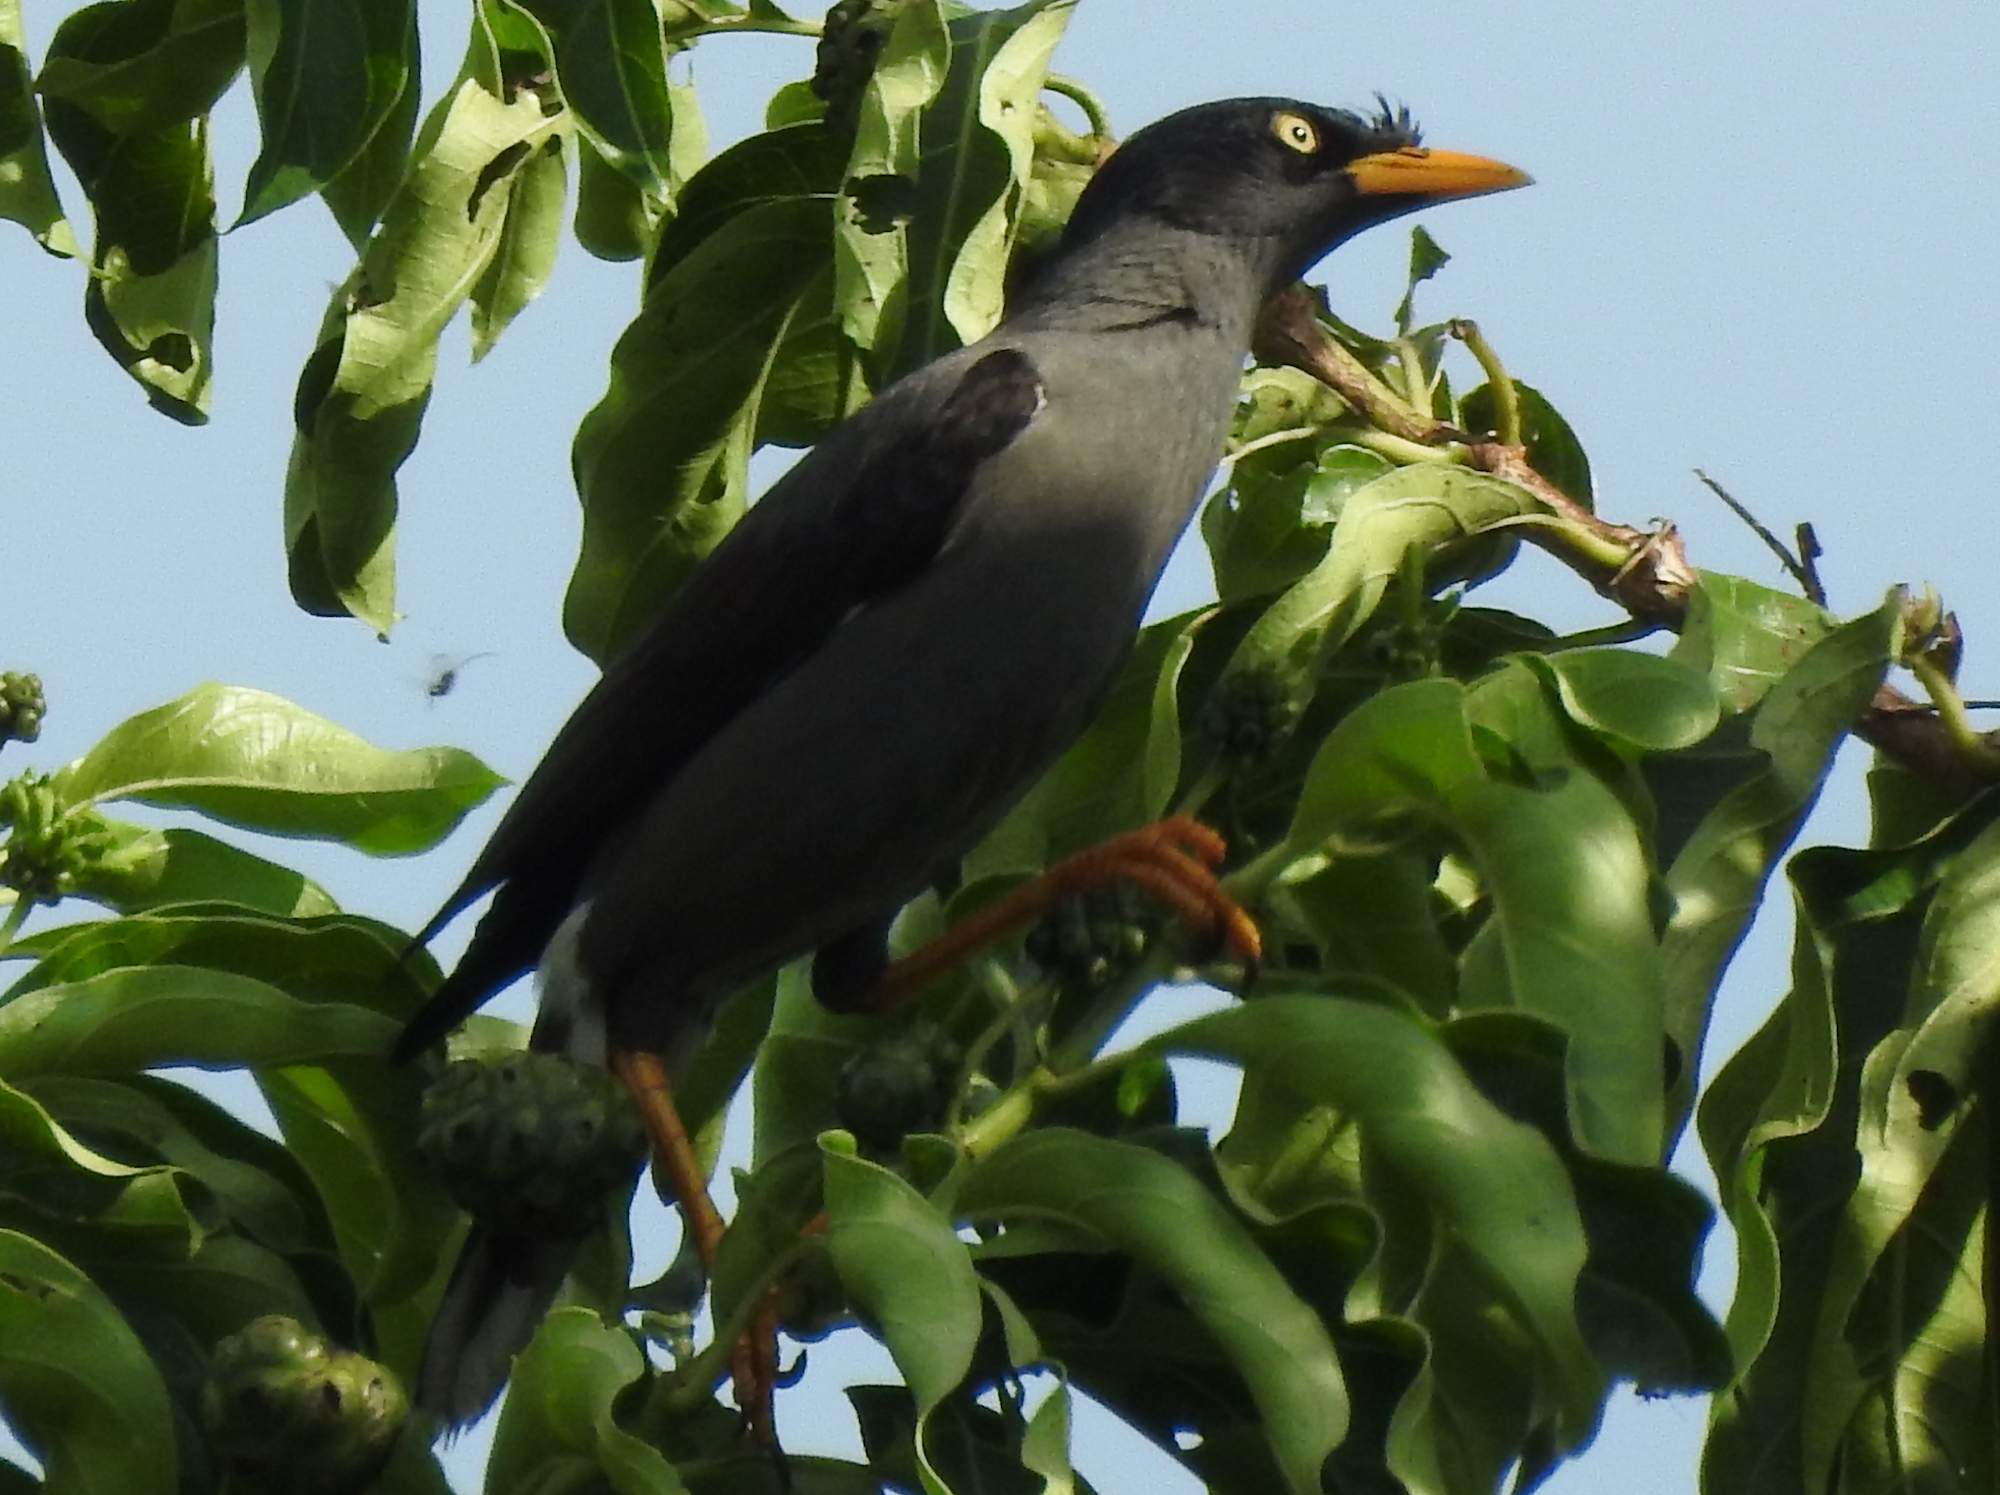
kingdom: Animalia
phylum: Chordata
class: Aves
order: Passeriformes
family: Sturnidae
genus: Acridotheres
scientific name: Acridotheres javanicus
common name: Javan myna
